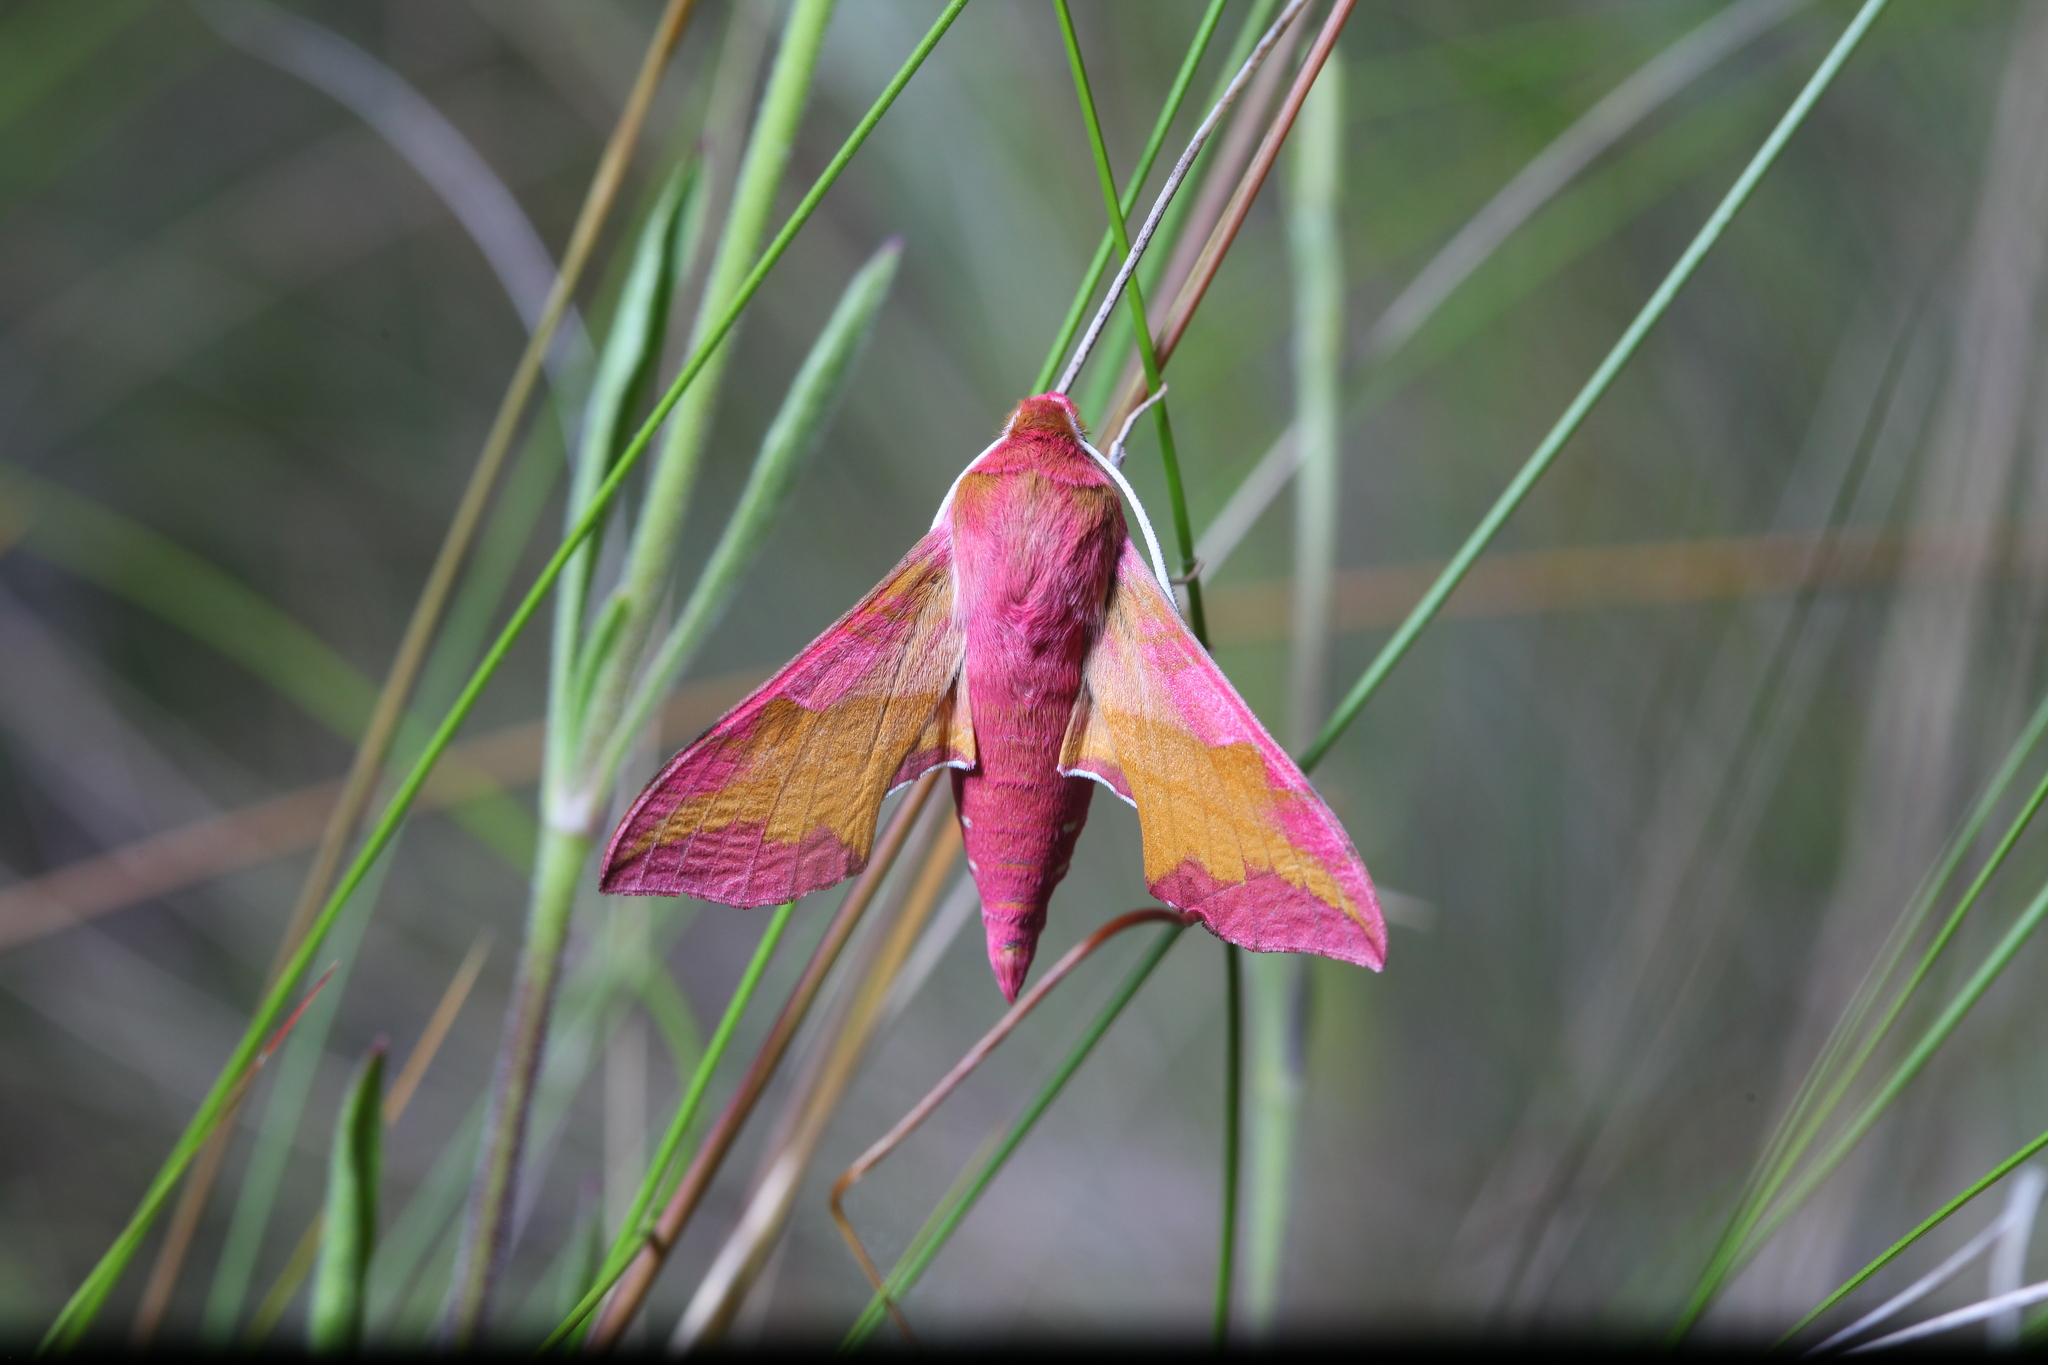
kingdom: Animalia
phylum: Arthropoda
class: Insecta
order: Lepidoptera
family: Sphingidae
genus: Deilephila
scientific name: Deilephila porcellus
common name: Small elephant hawk-moth
